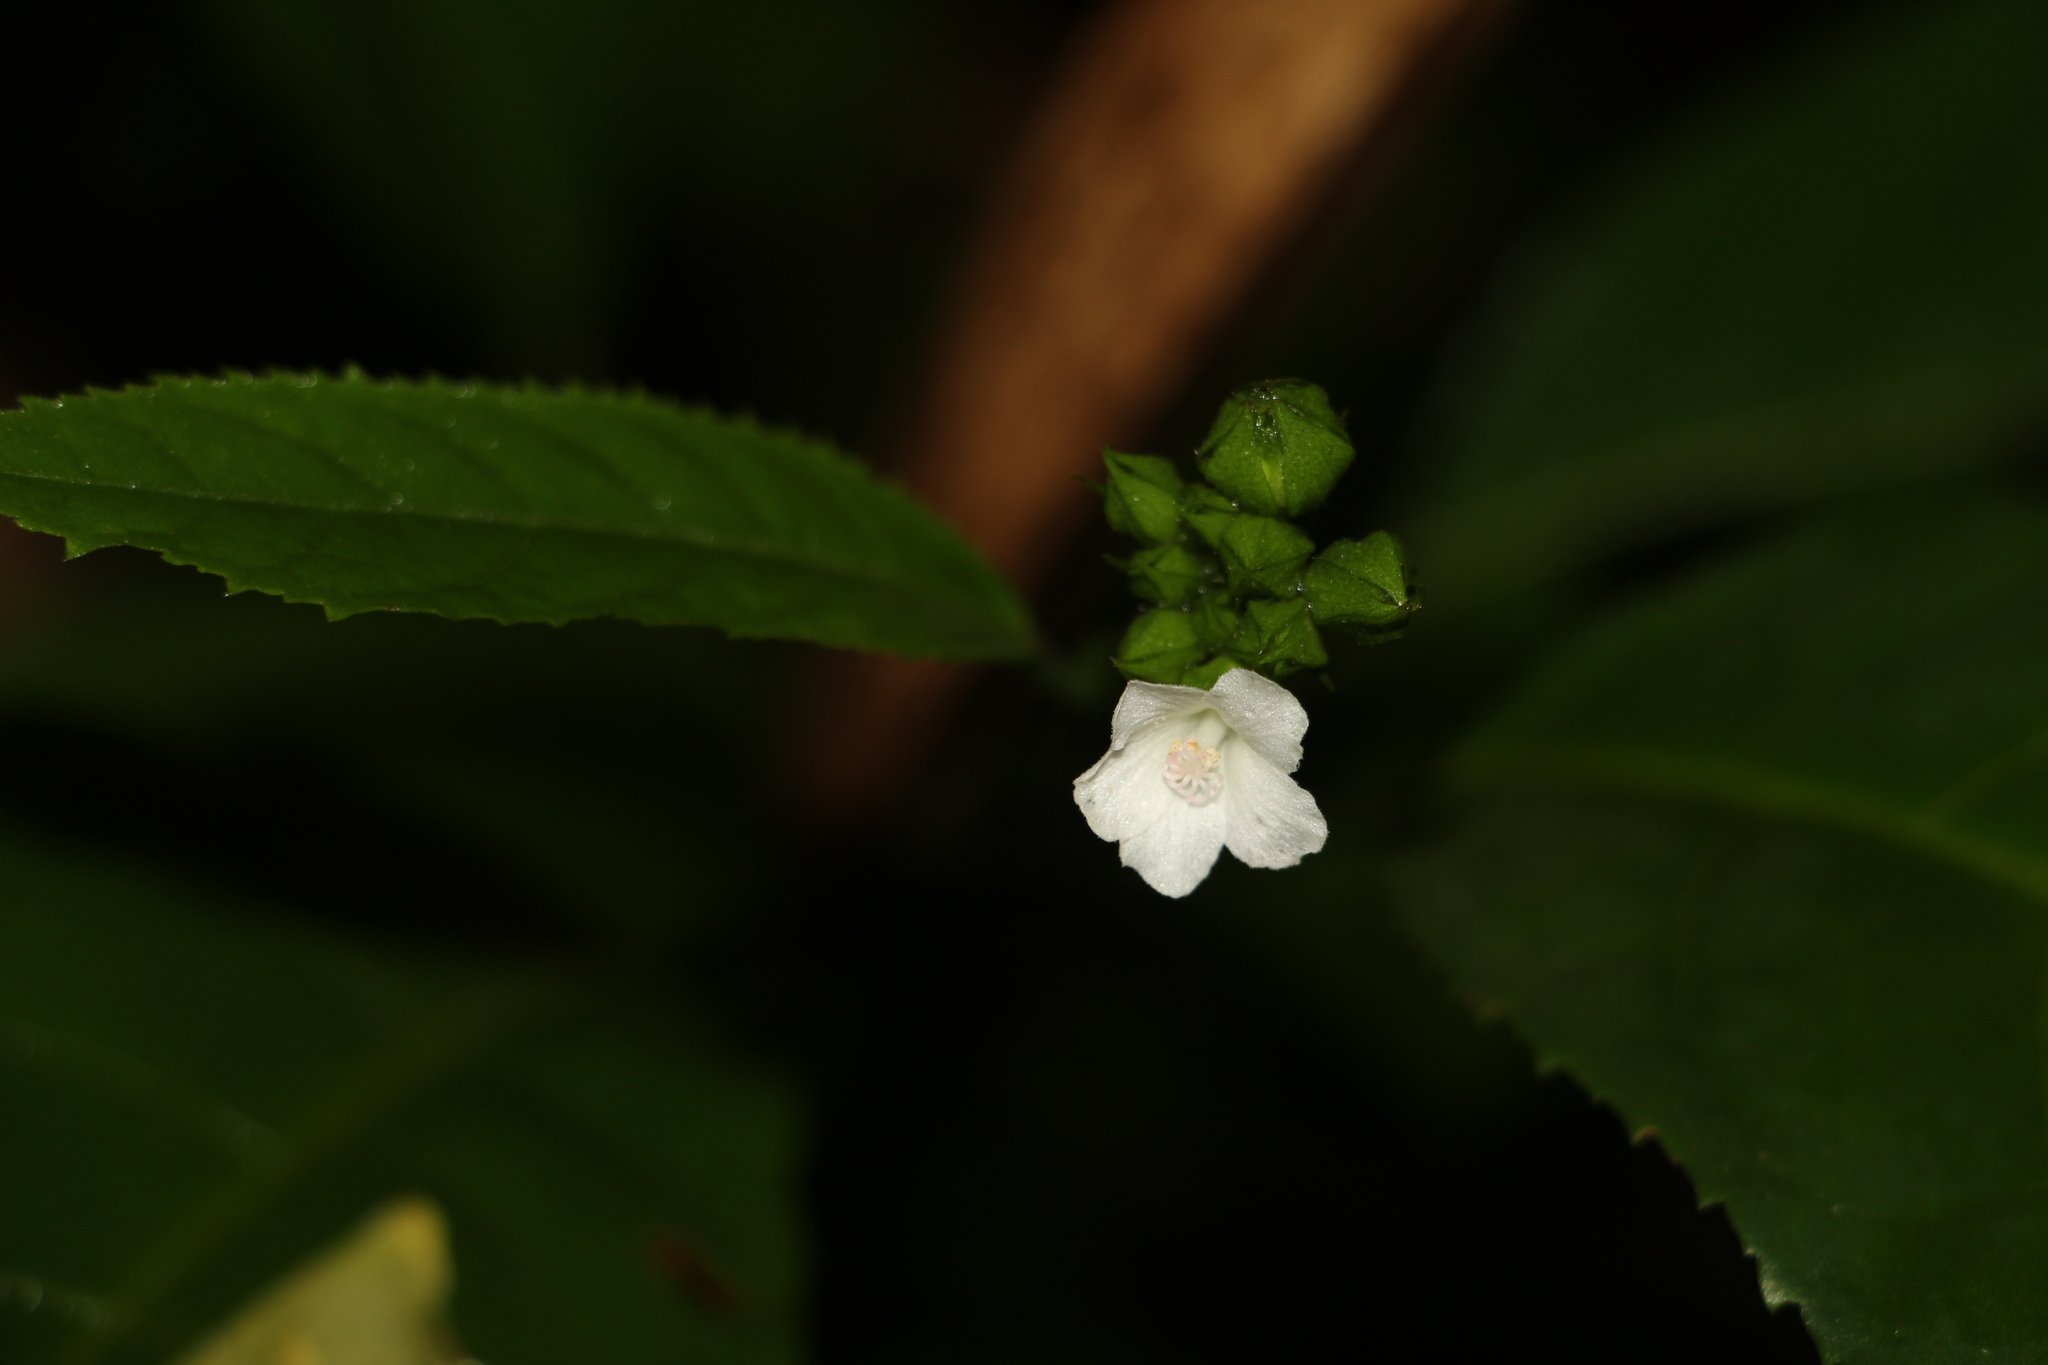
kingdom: Plantae
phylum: Tracheophyta
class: Magnoliopsida
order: Malvales
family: Malvaceae
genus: Pavonia
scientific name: Pavonia fruticosa
